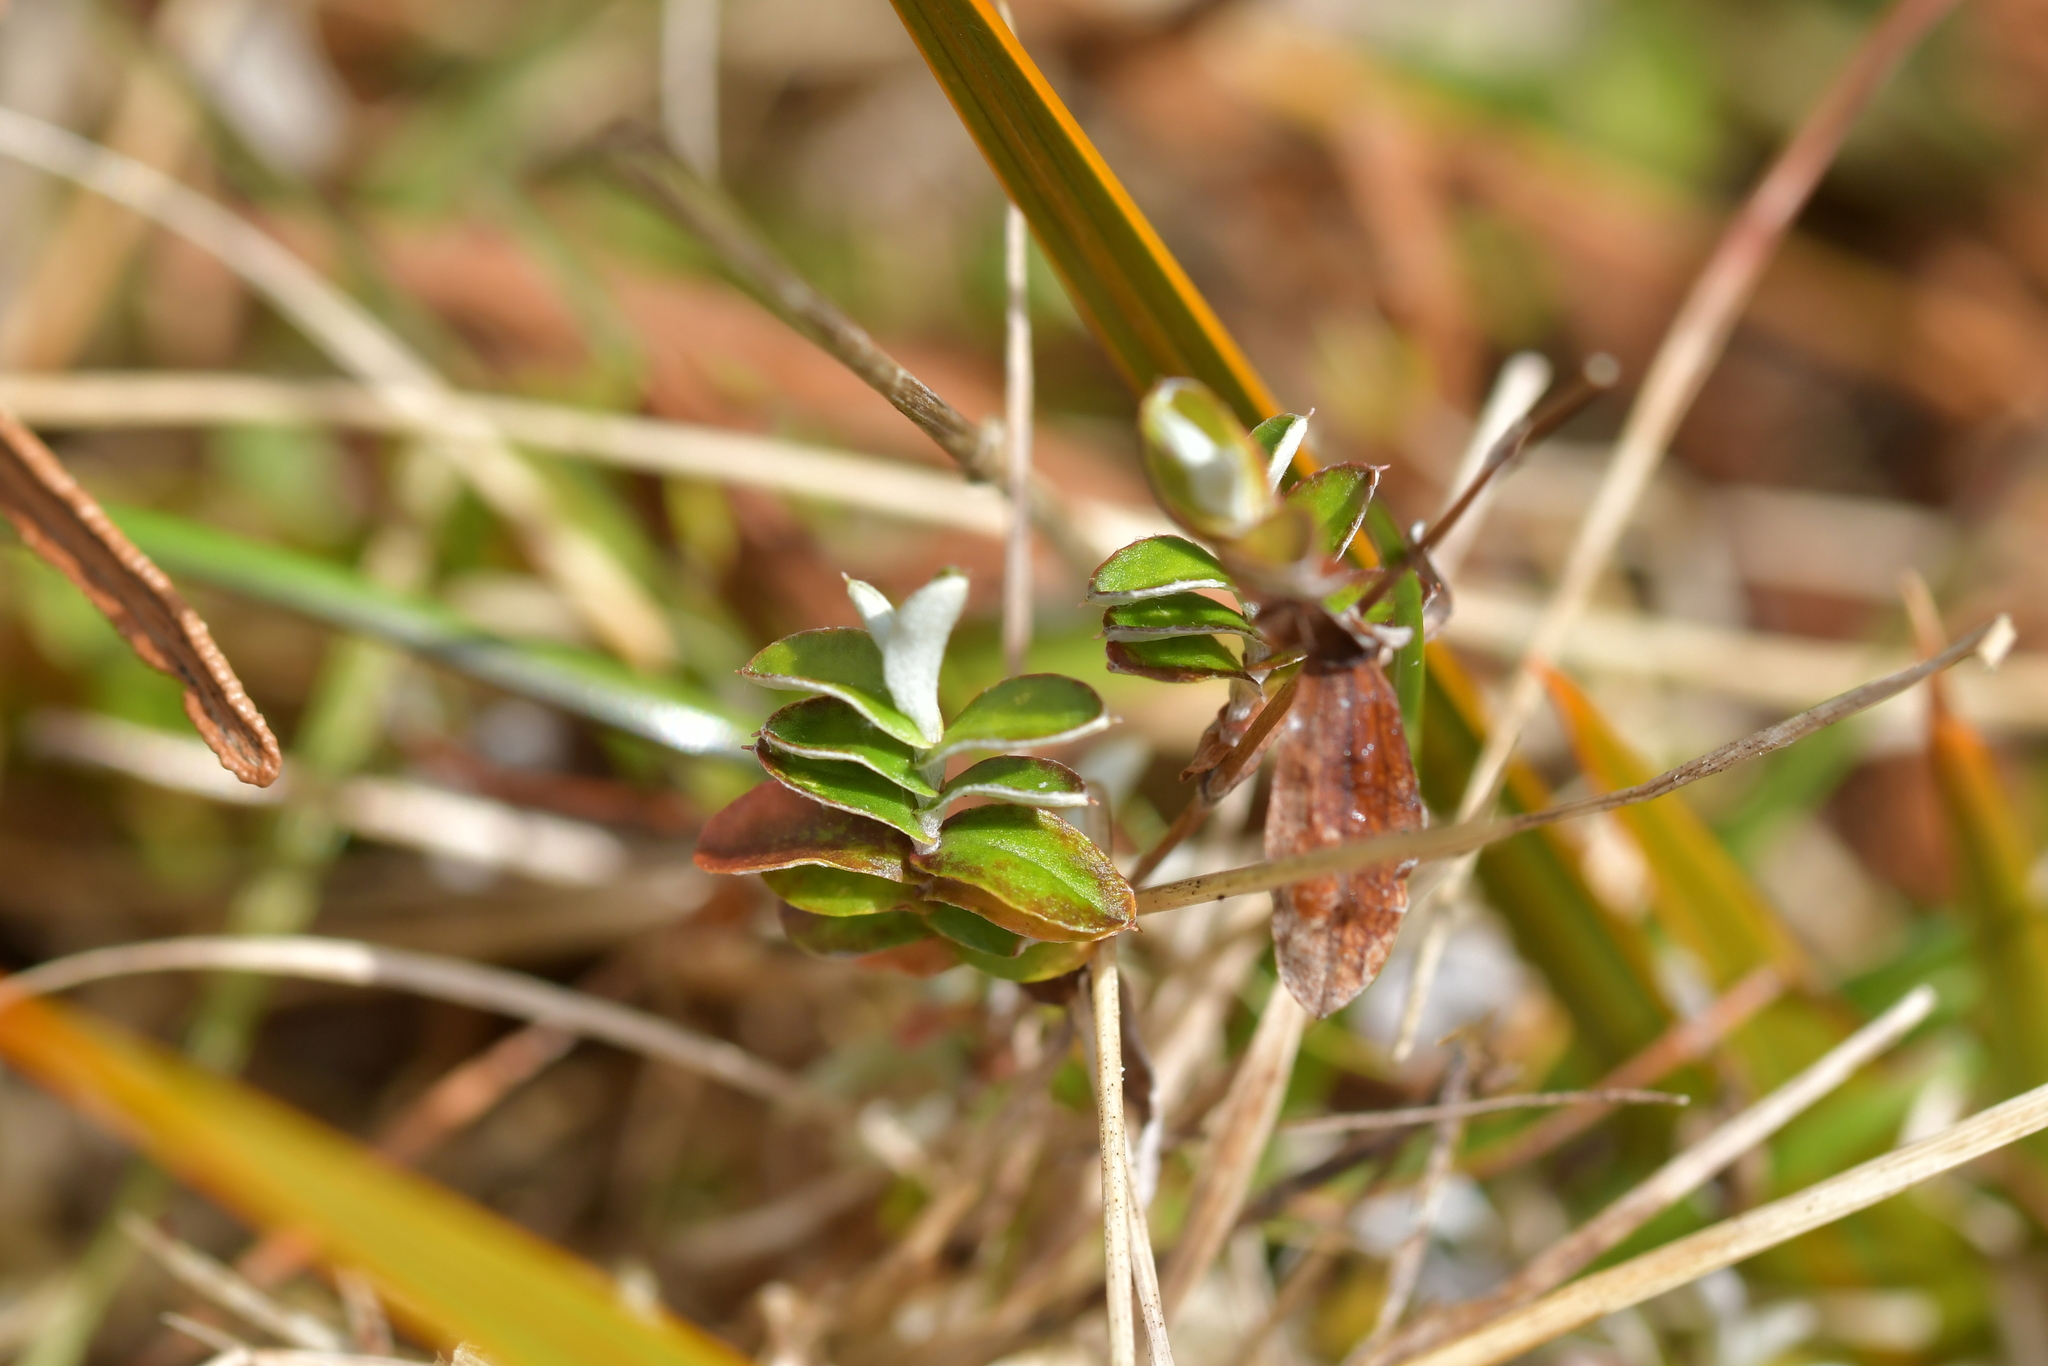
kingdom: Plantae
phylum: Tracheophyta
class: Magnoliopsida
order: Asterales
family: Asteraceae
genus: Helichrysum
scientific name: Helichrysum filicaule
